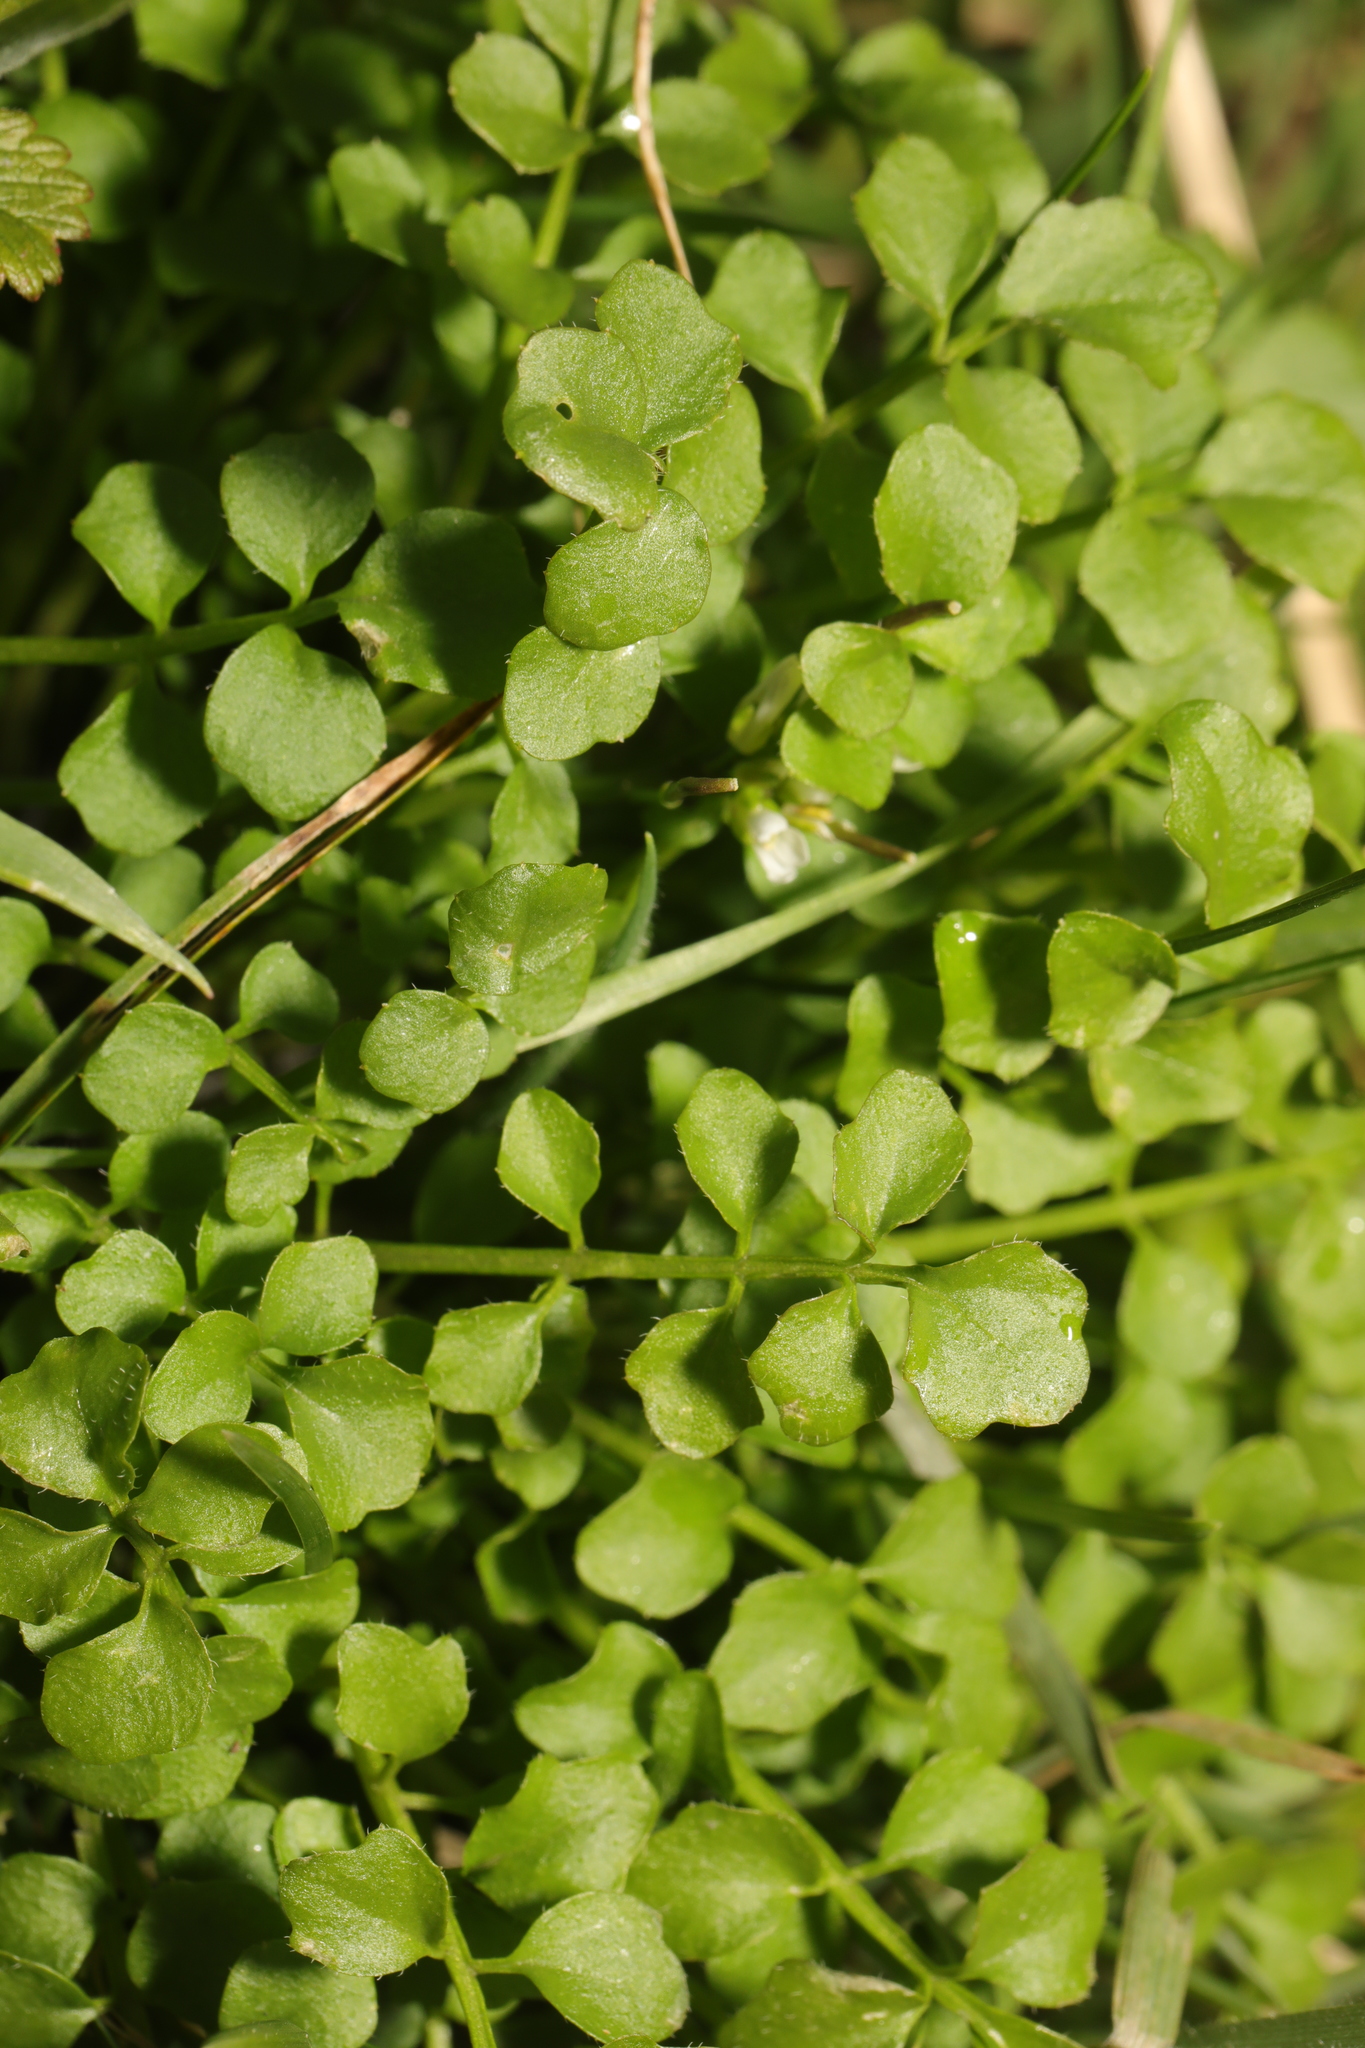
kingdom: Plantae
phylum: Tracheophyta
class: Magnoliopsida
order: Brassicales
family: Brassicaceae
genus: Cardamine
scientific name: Cardamine hirsuta
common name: Hairy bittercress
